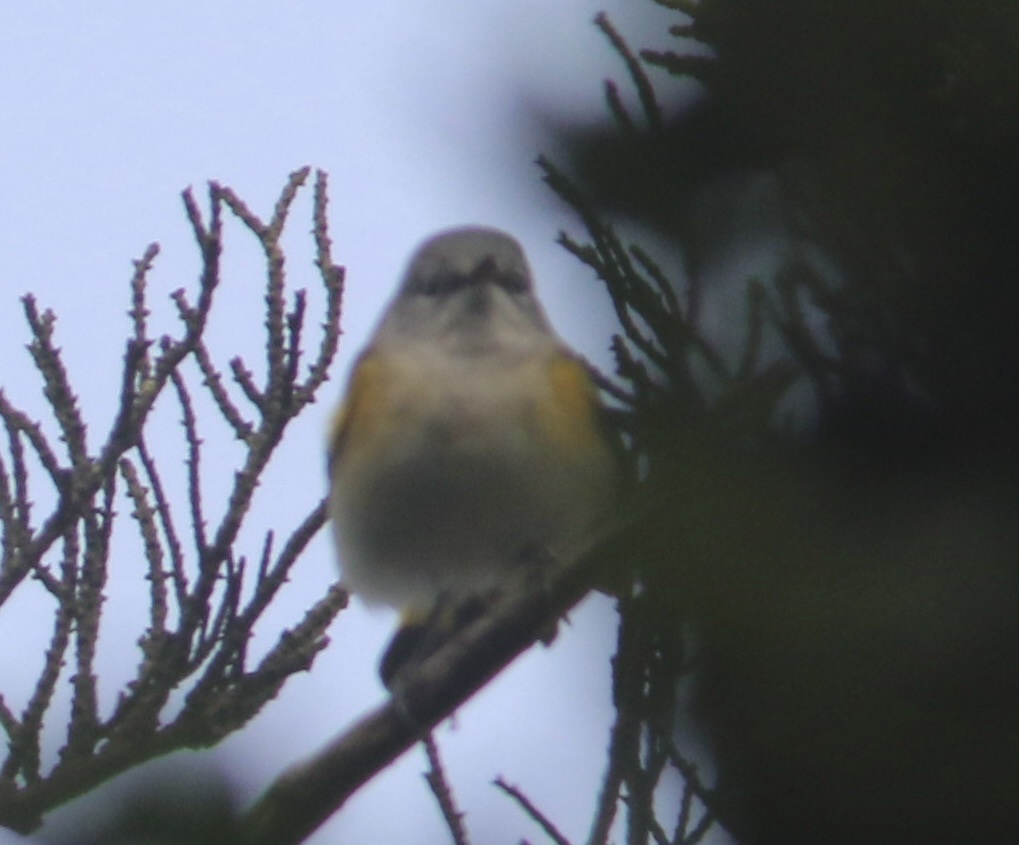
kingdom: Animalia
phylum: Chordata
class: Aves
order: Passeriformes
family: Parulidae
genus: Setophaga
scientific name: Setophaga ruticilla
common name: American redstart
